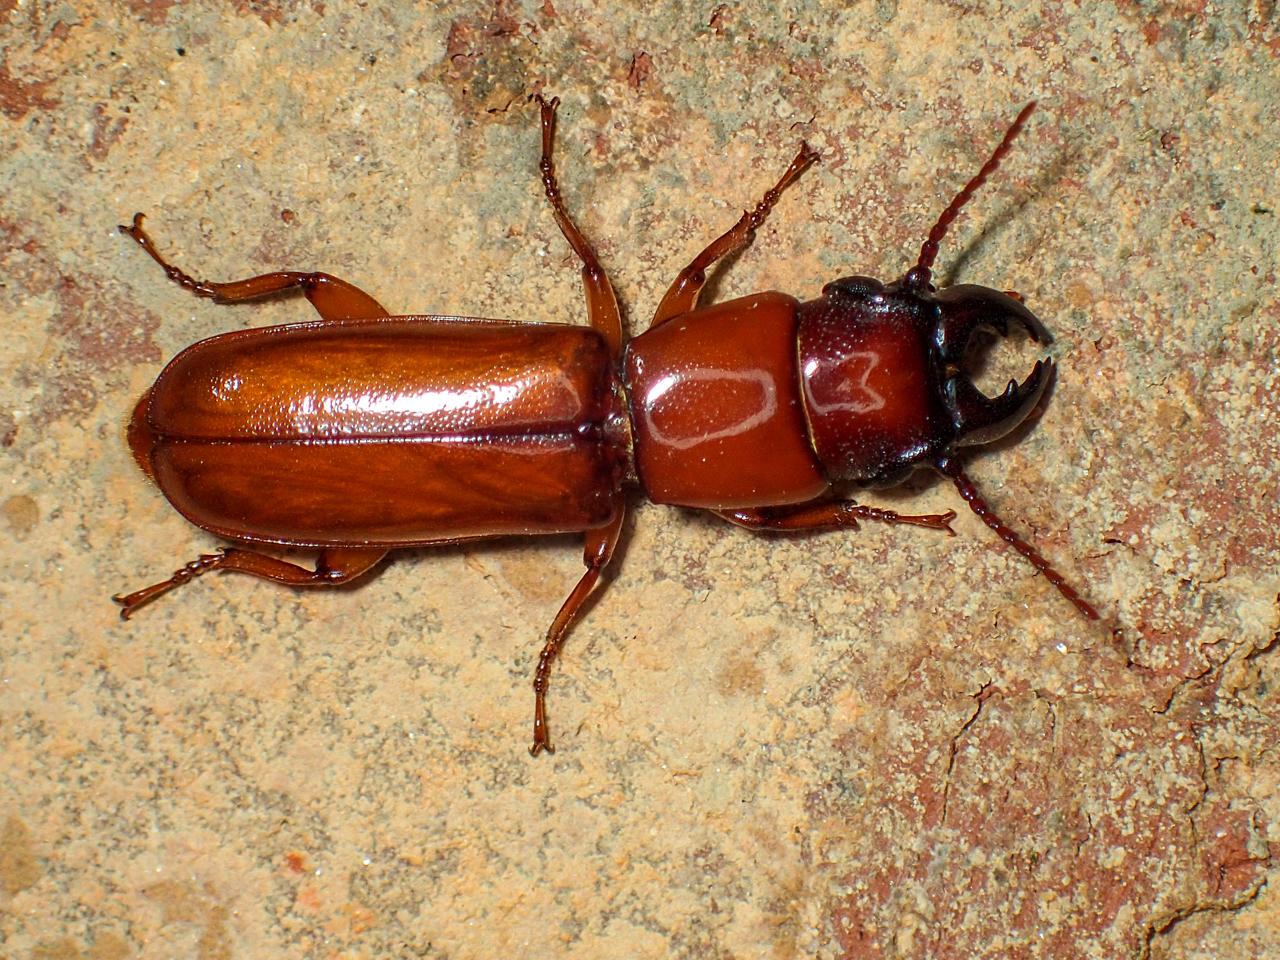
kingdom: Animalia
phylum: Arthropoda
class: Insecta
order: Coleoptera
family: Cerambycidae
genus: Parandra
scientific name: Parandra polita
